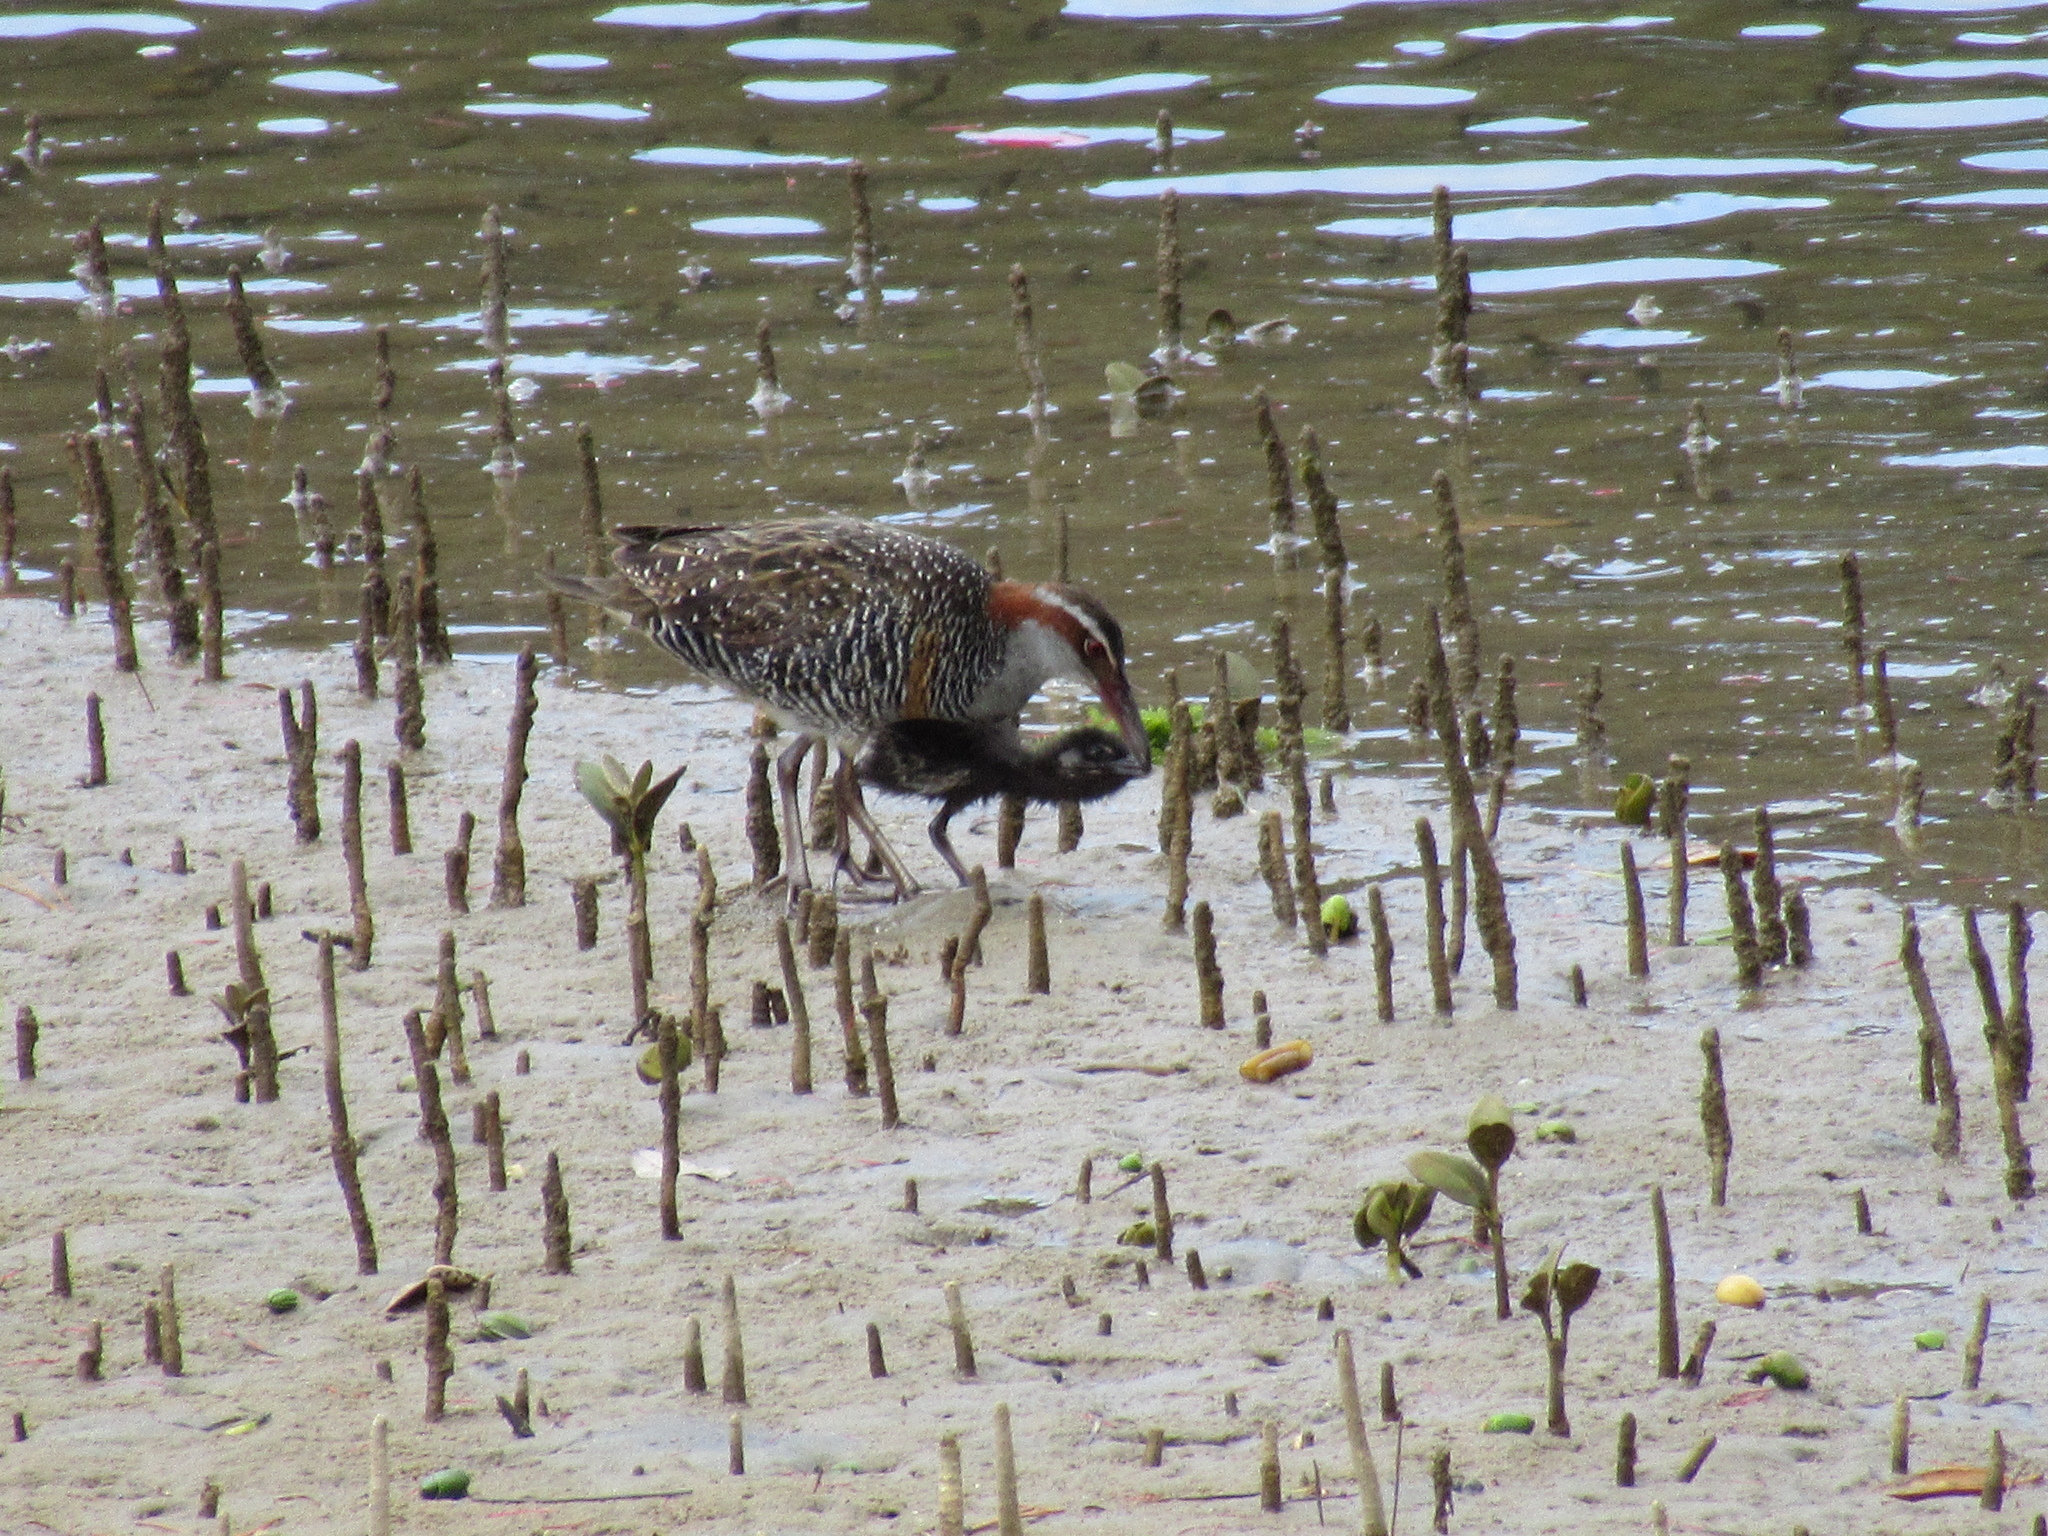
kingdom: Animalia
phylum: Chordata
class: Aves
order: Gruiformes
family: Rallidae
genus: Gallirallus
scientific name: Gallirallus philippensis
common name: Buff-banded rail
